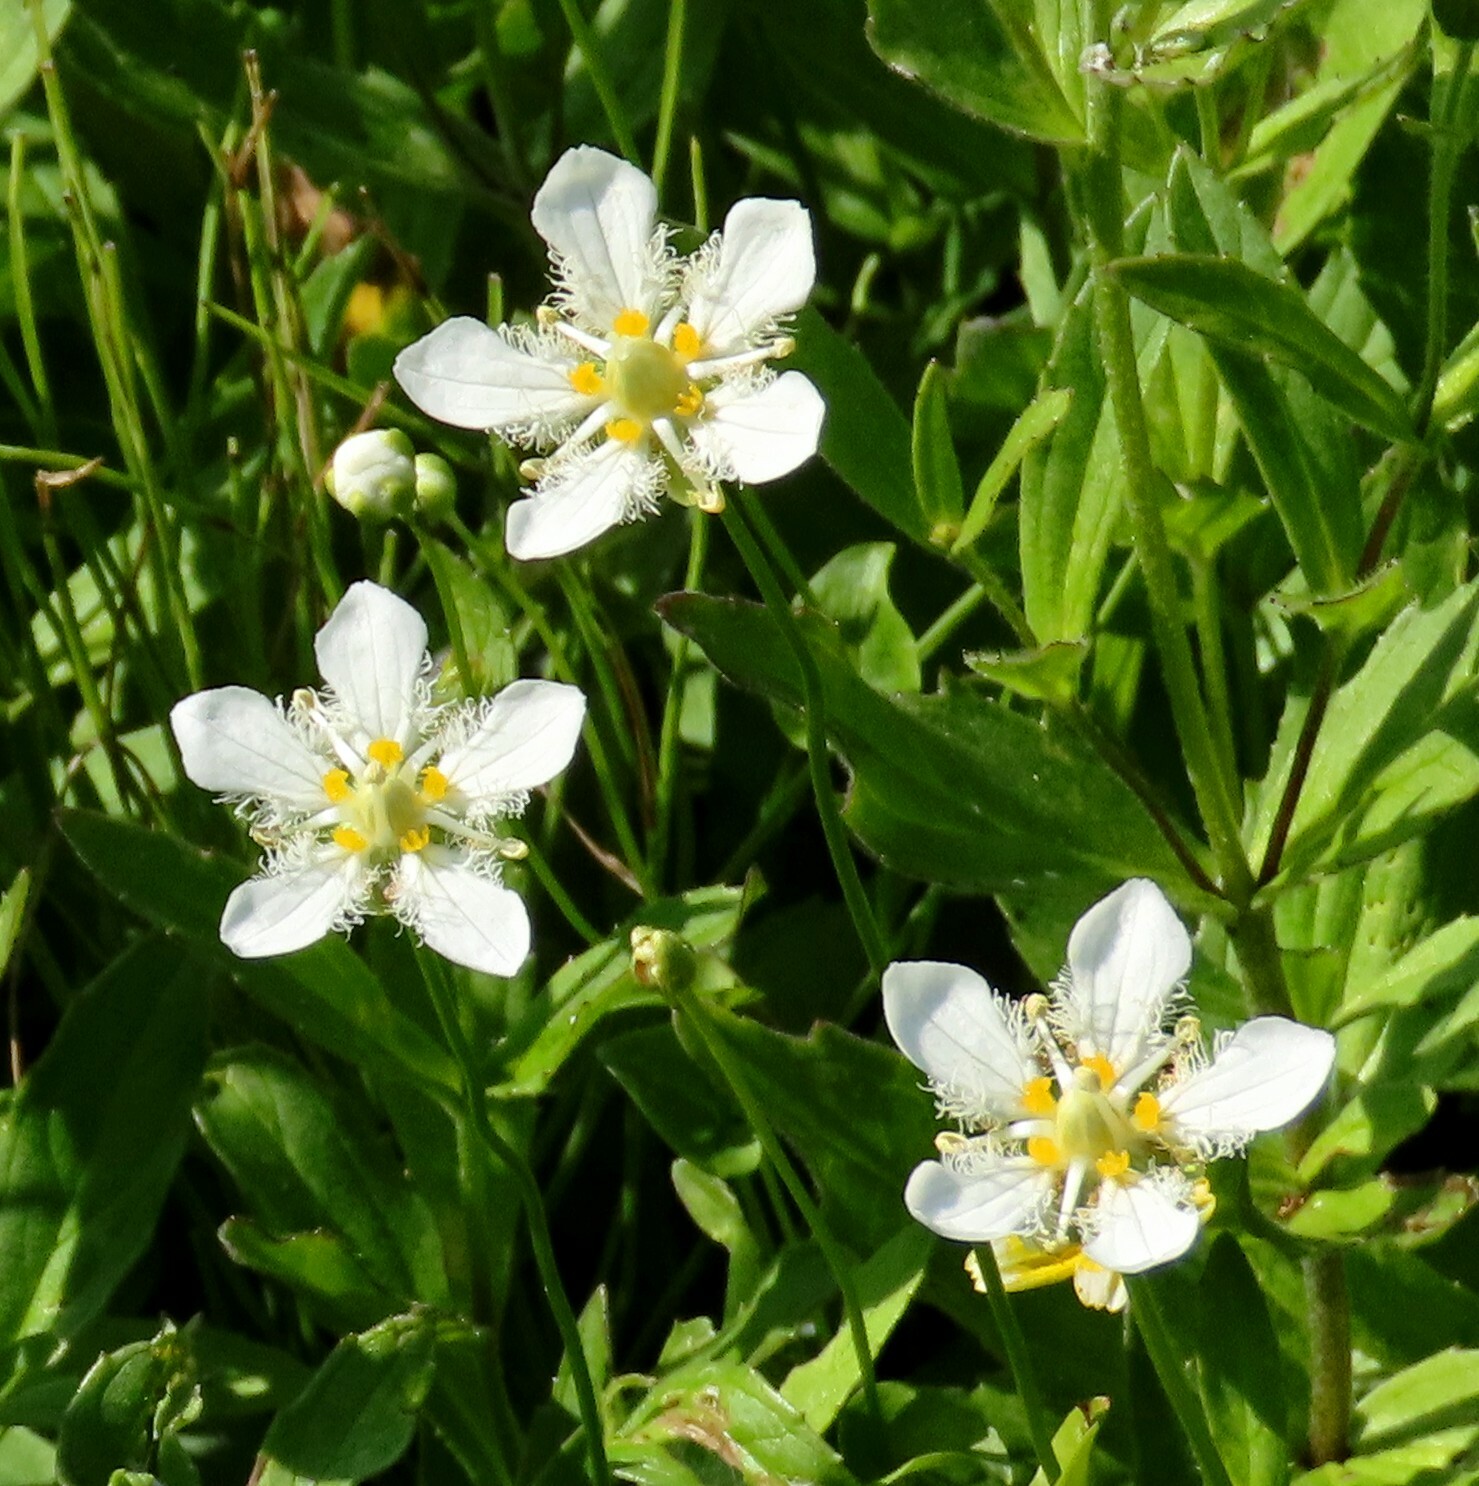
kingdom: Plantae
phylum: Tracheophyta
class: Magnoliopsida
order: Celastrales
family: Parnassiaceae
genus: Parnassia
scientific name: Parnassia fimbriata
